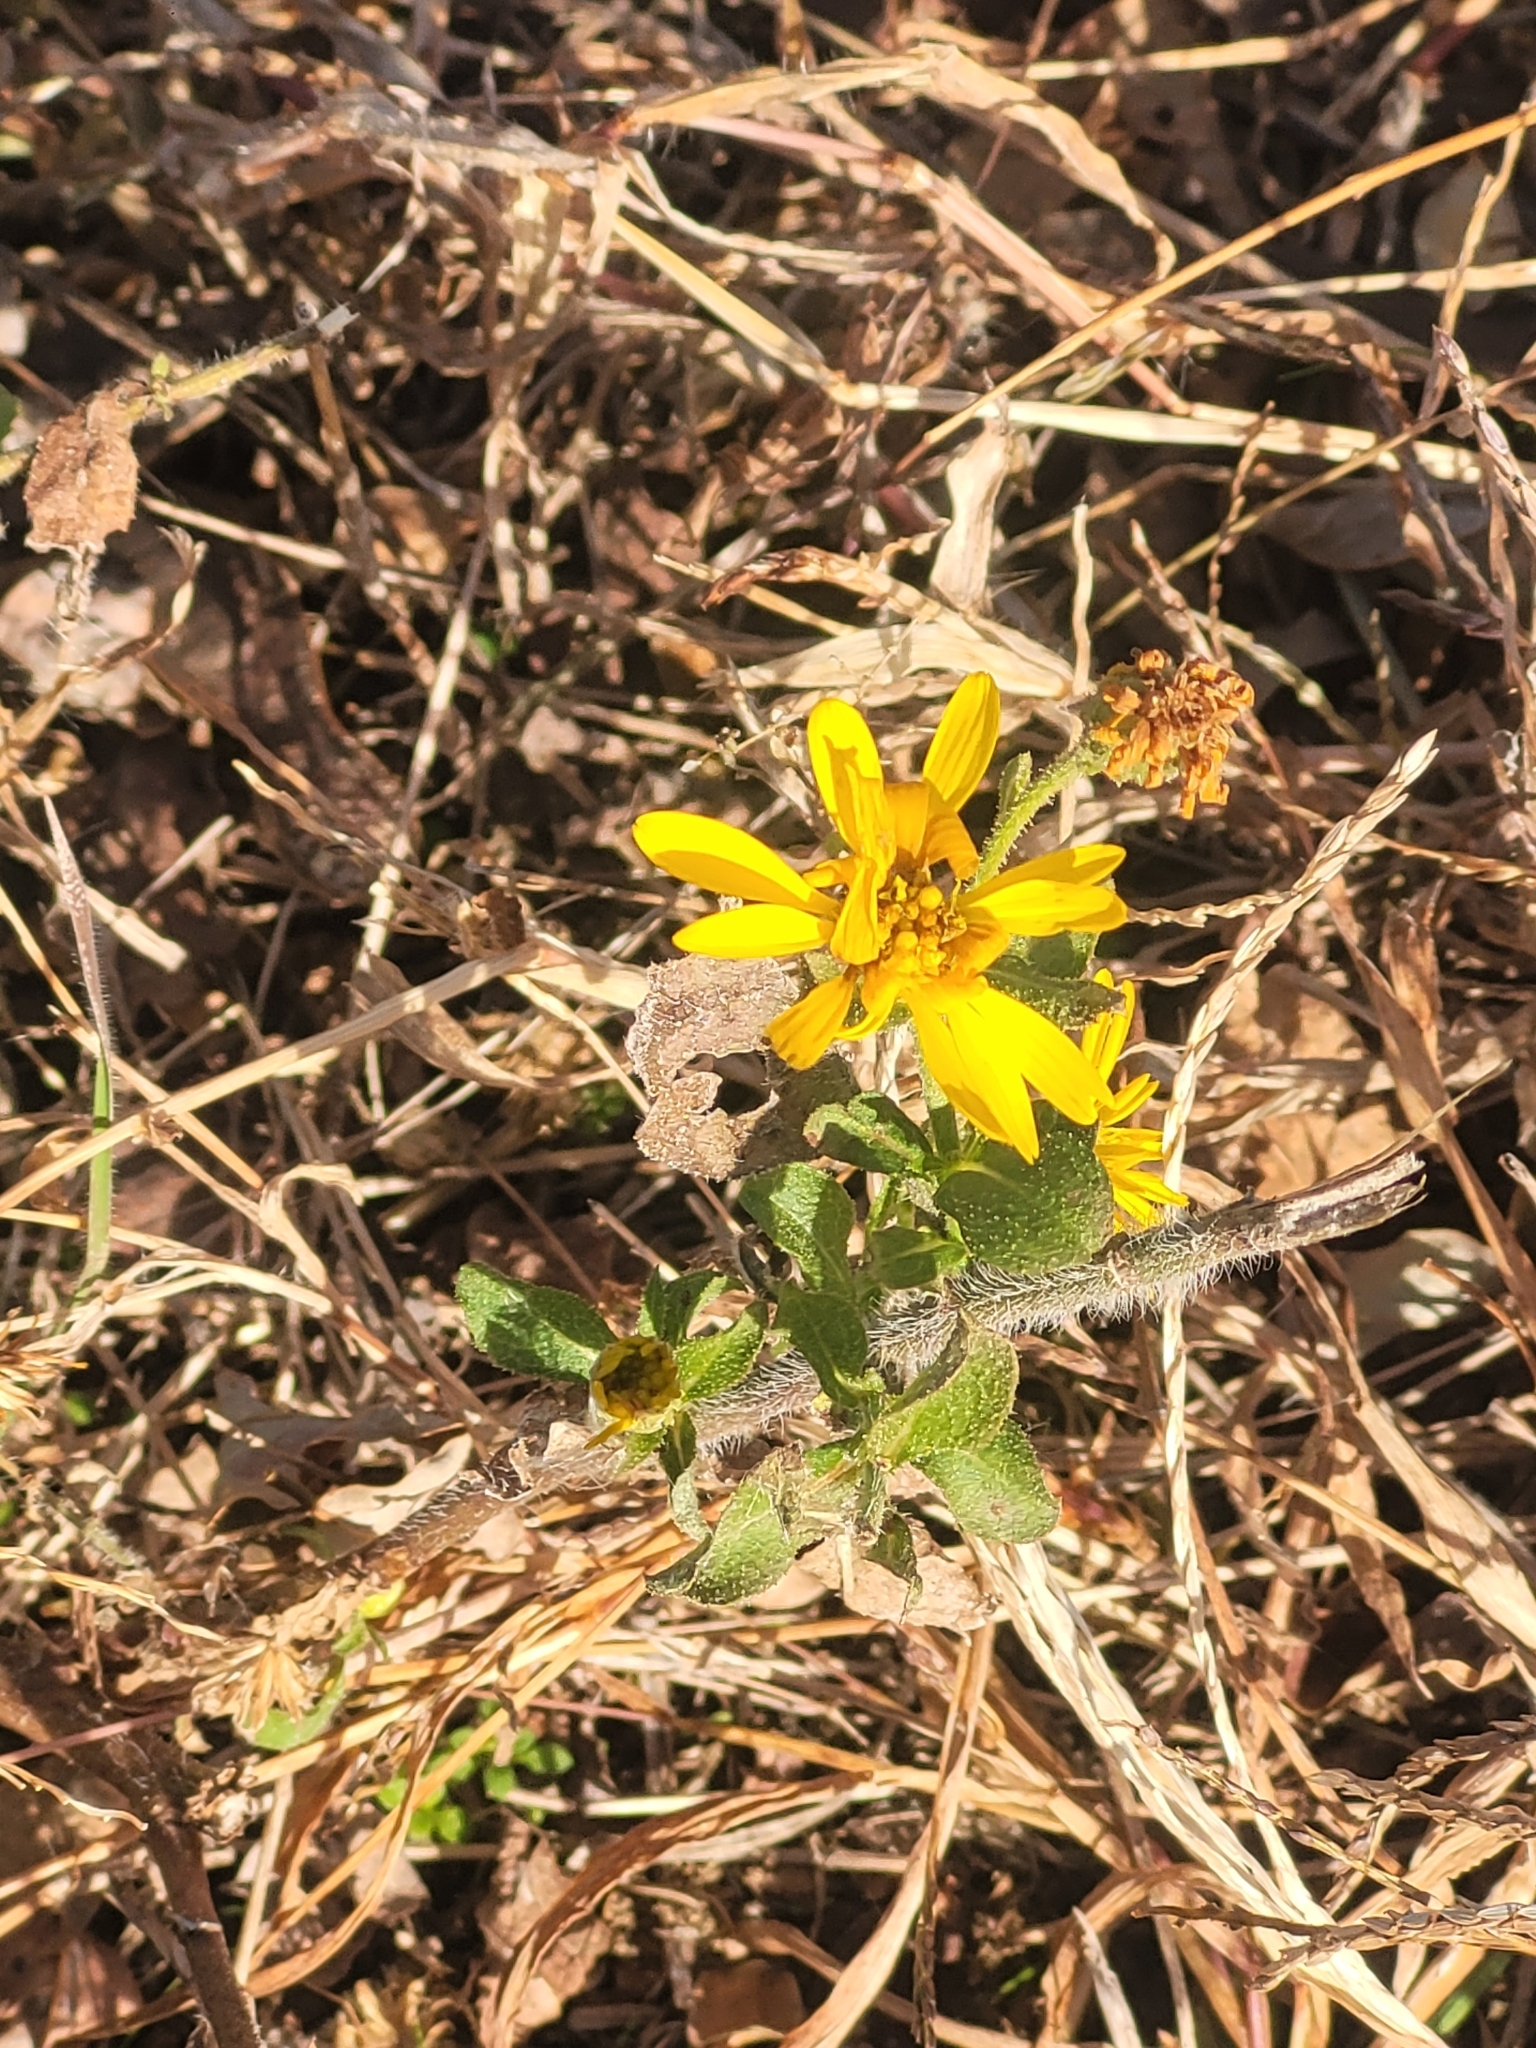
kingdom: Plantae
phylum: Tracheophyta
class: Magnoliopsida
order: Asterales
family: Asteraceae
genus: Heterotheca
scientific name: Heterotheca subaxillaris
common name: Camphorweed
